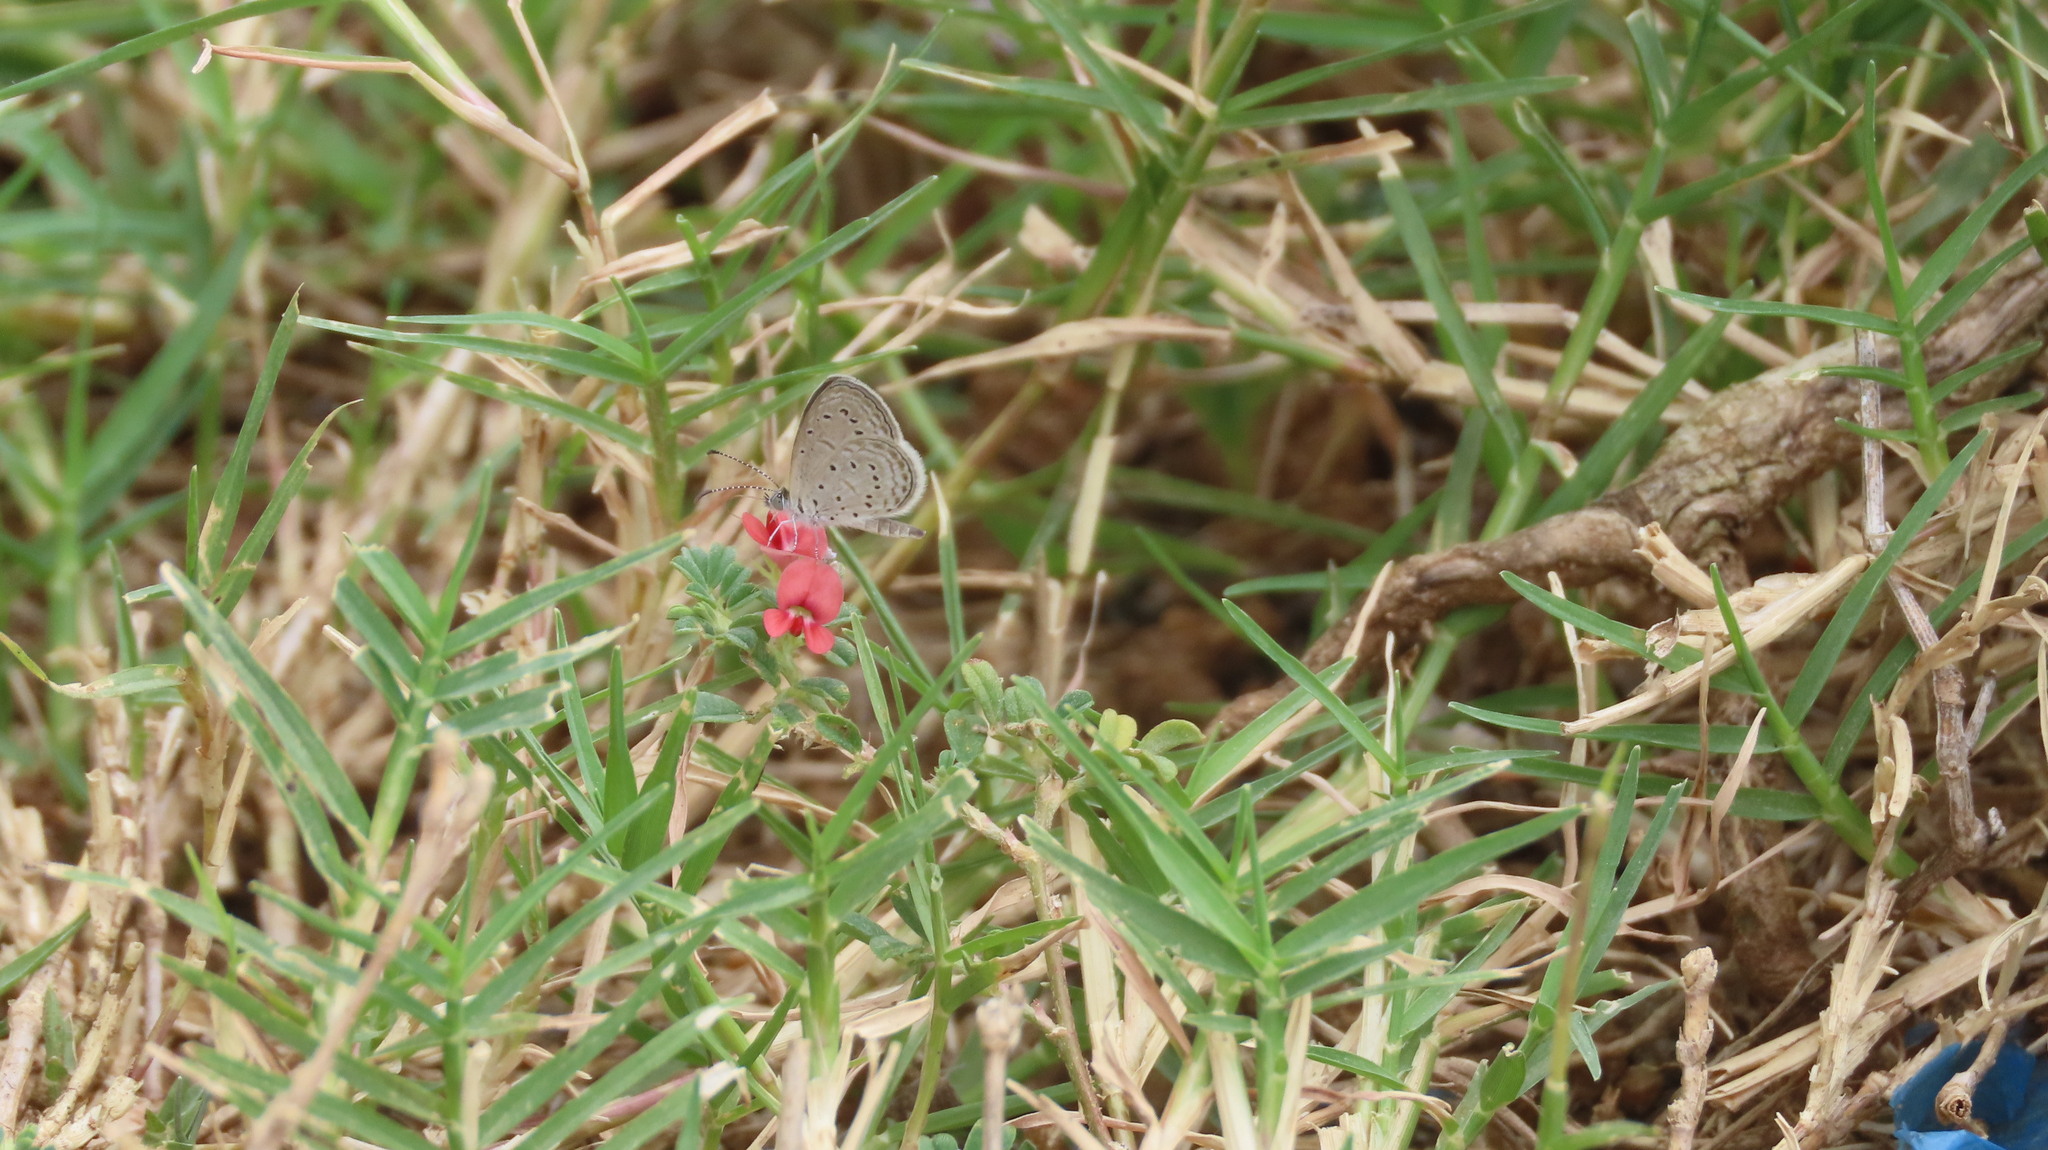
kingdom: Animalia
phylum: Arthropoda
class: Insecta
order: Lepidoptera
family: Lycaenidae
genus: Zizula
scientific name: Zizula hylax
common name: Gaika blue
